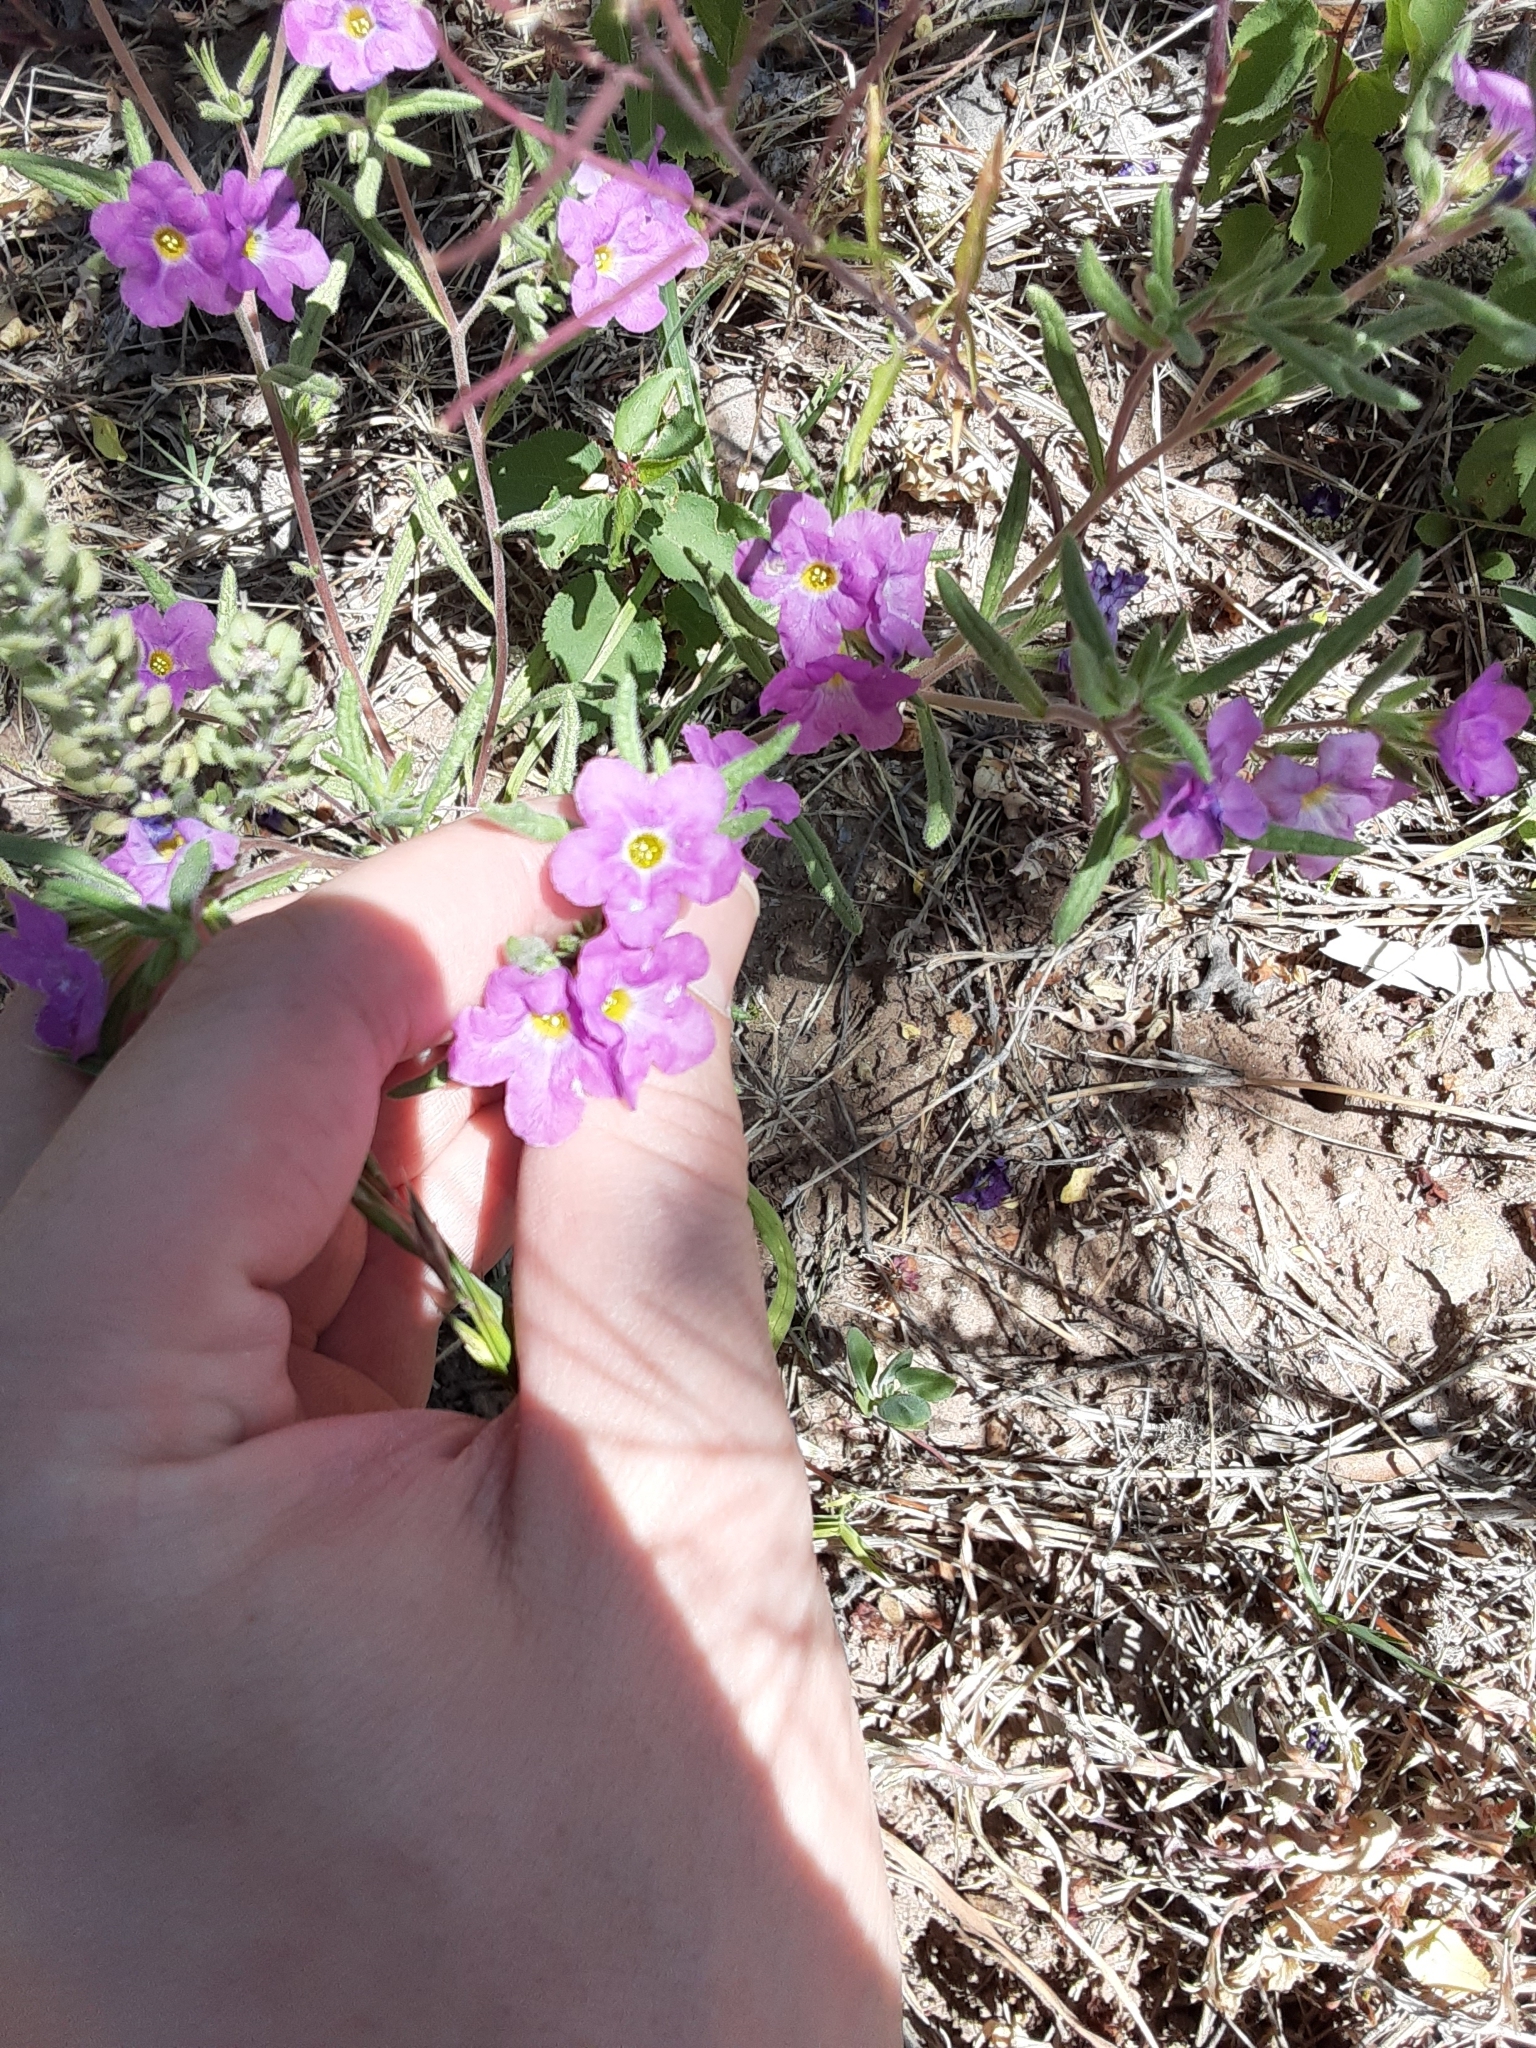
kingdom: Plantae
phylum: Tracheophyta
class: Magnoliopsida
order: Boraginales
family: Namaceae
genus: Nama
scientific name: Nama hispida
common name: Bristly nama
